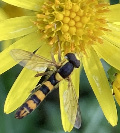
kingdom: Animalia
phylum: Arthropoda
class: Insecta
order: Diptera
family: Syrphidae
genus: Sphaerophoria
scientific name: Sphaerophoria scripta
